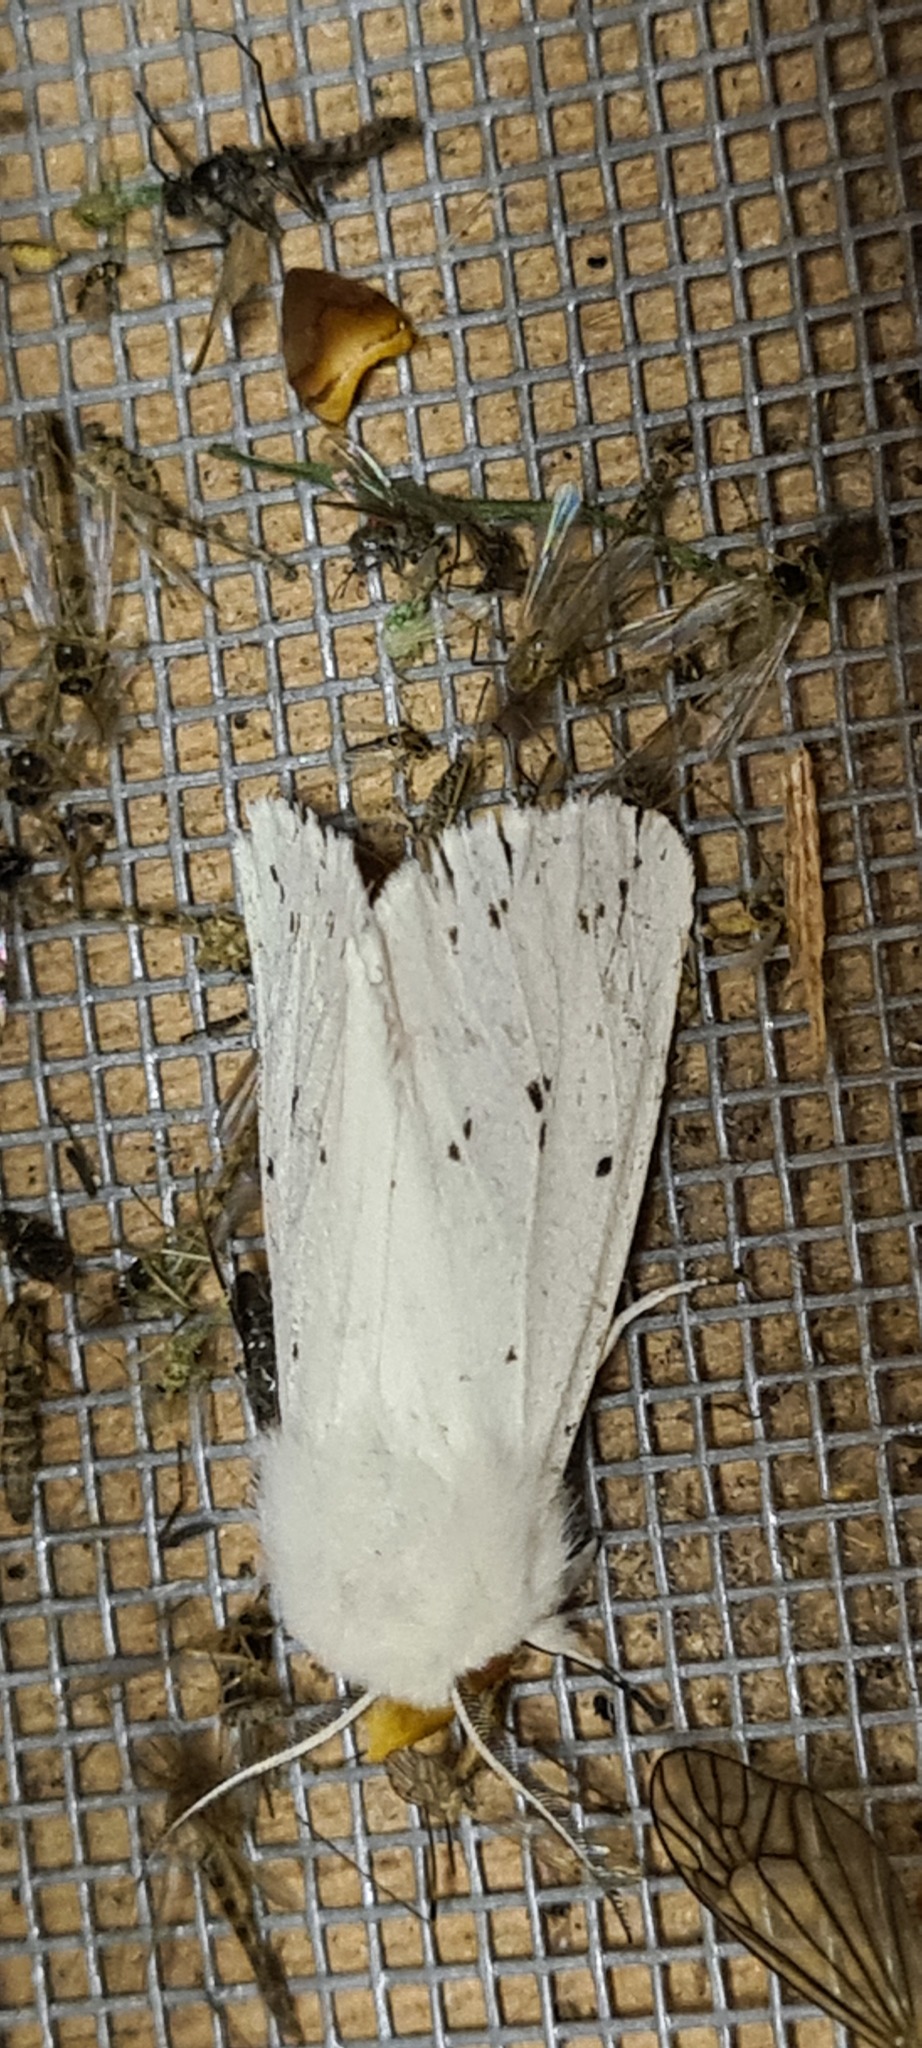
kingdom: Animalia
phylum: Arthropoda
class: Insecta
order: Lepidoptera
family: Erebidae
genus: Spilosoma
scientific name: Spilosoma lubricipeda
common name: White ermine
